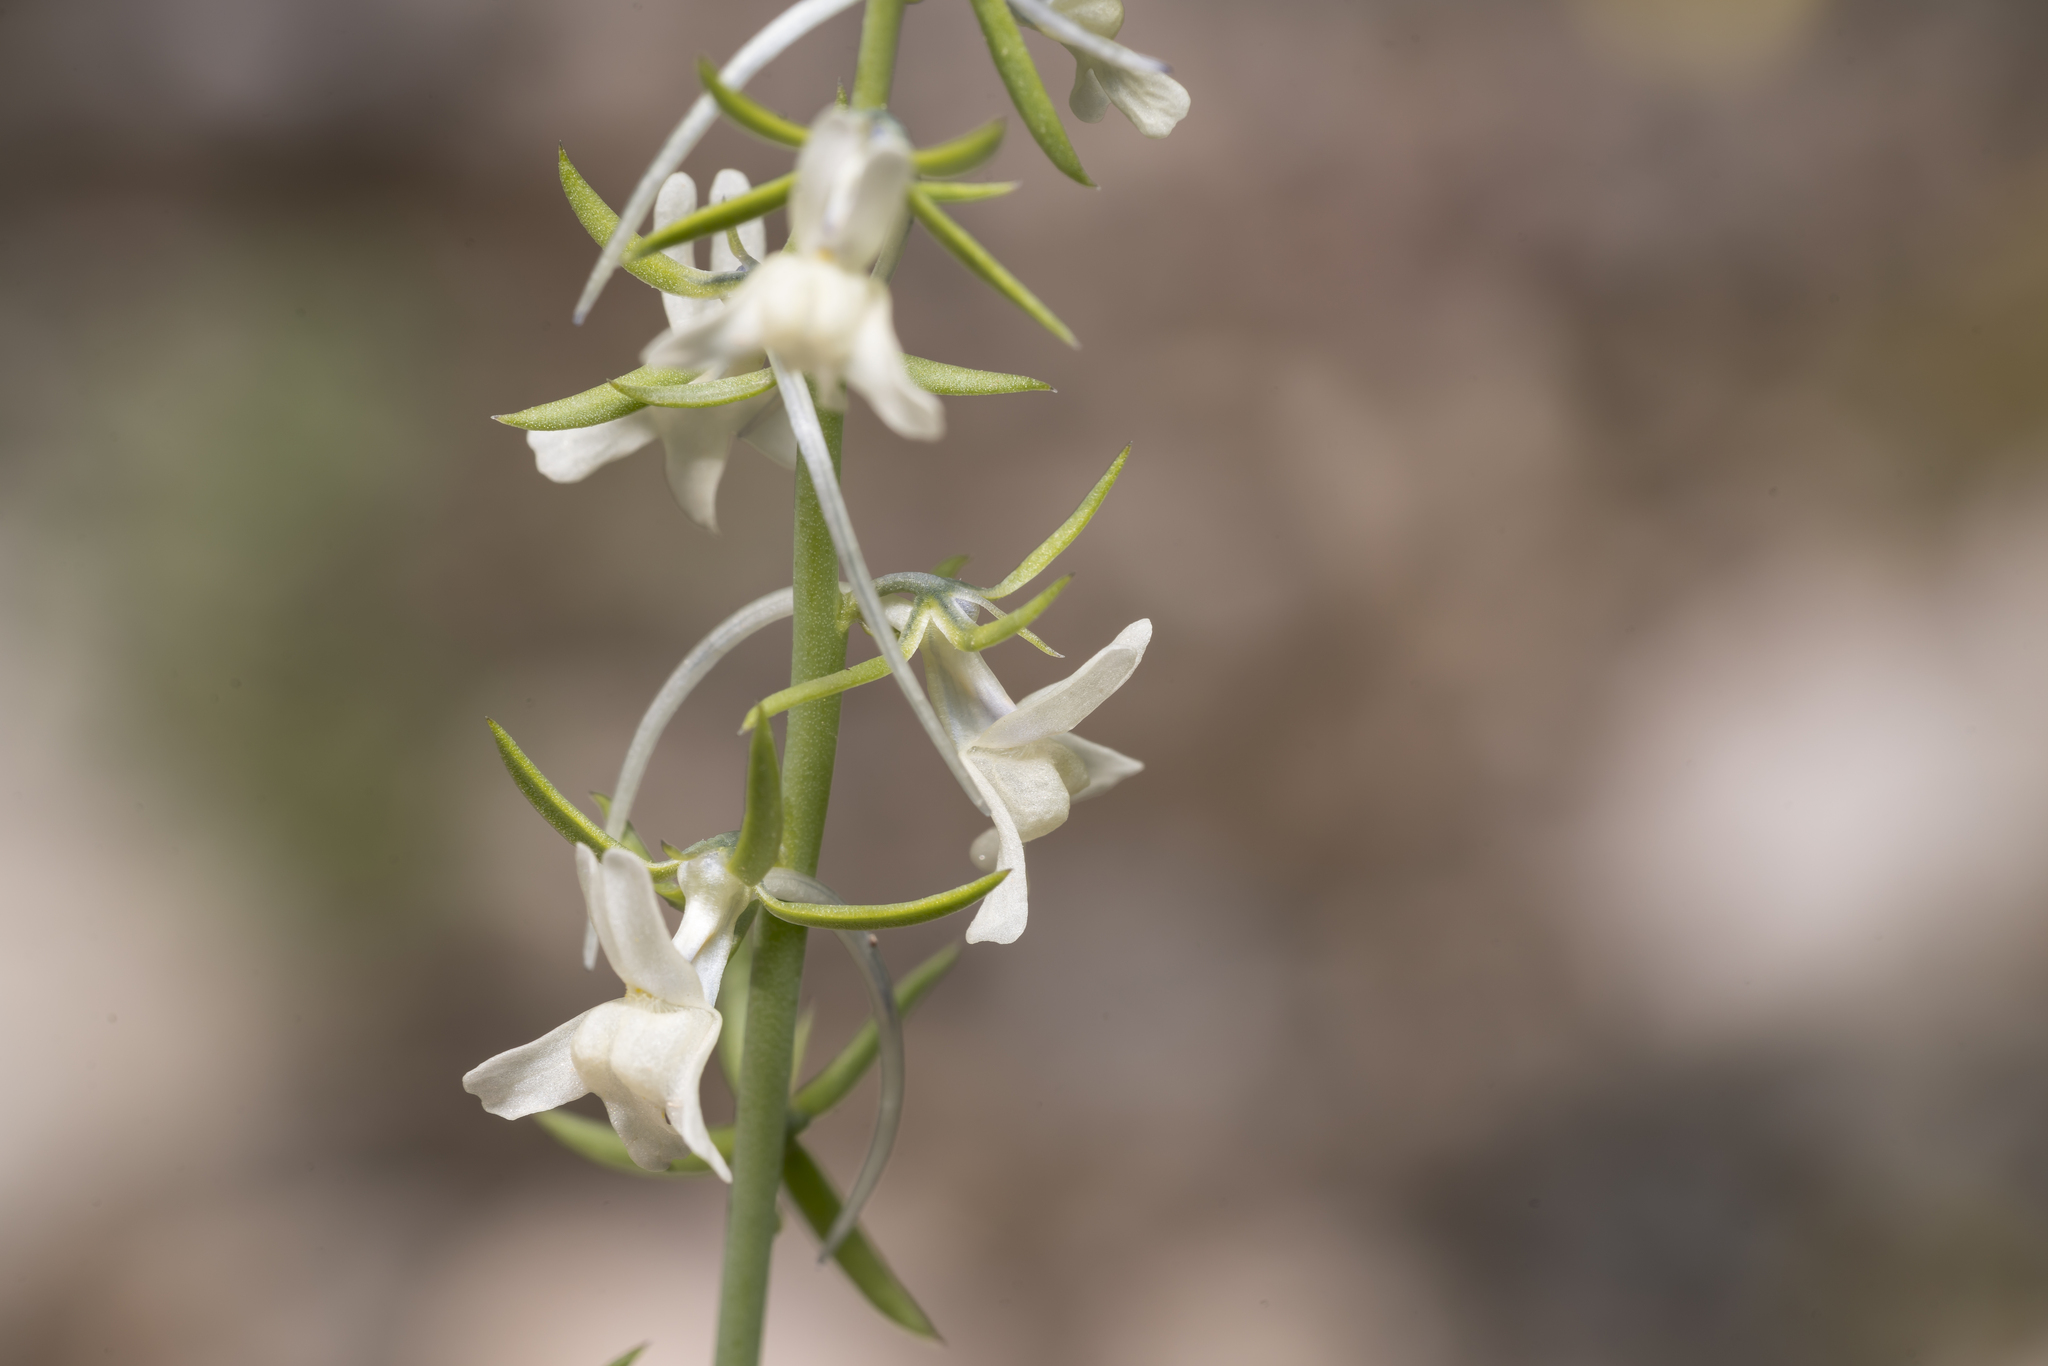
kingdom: Plantae
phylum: Tracheophyta
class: Magnoliopsida
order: Lamiales
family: Plantaginaceae
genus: Linaria
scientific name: Linaria chalepensis
